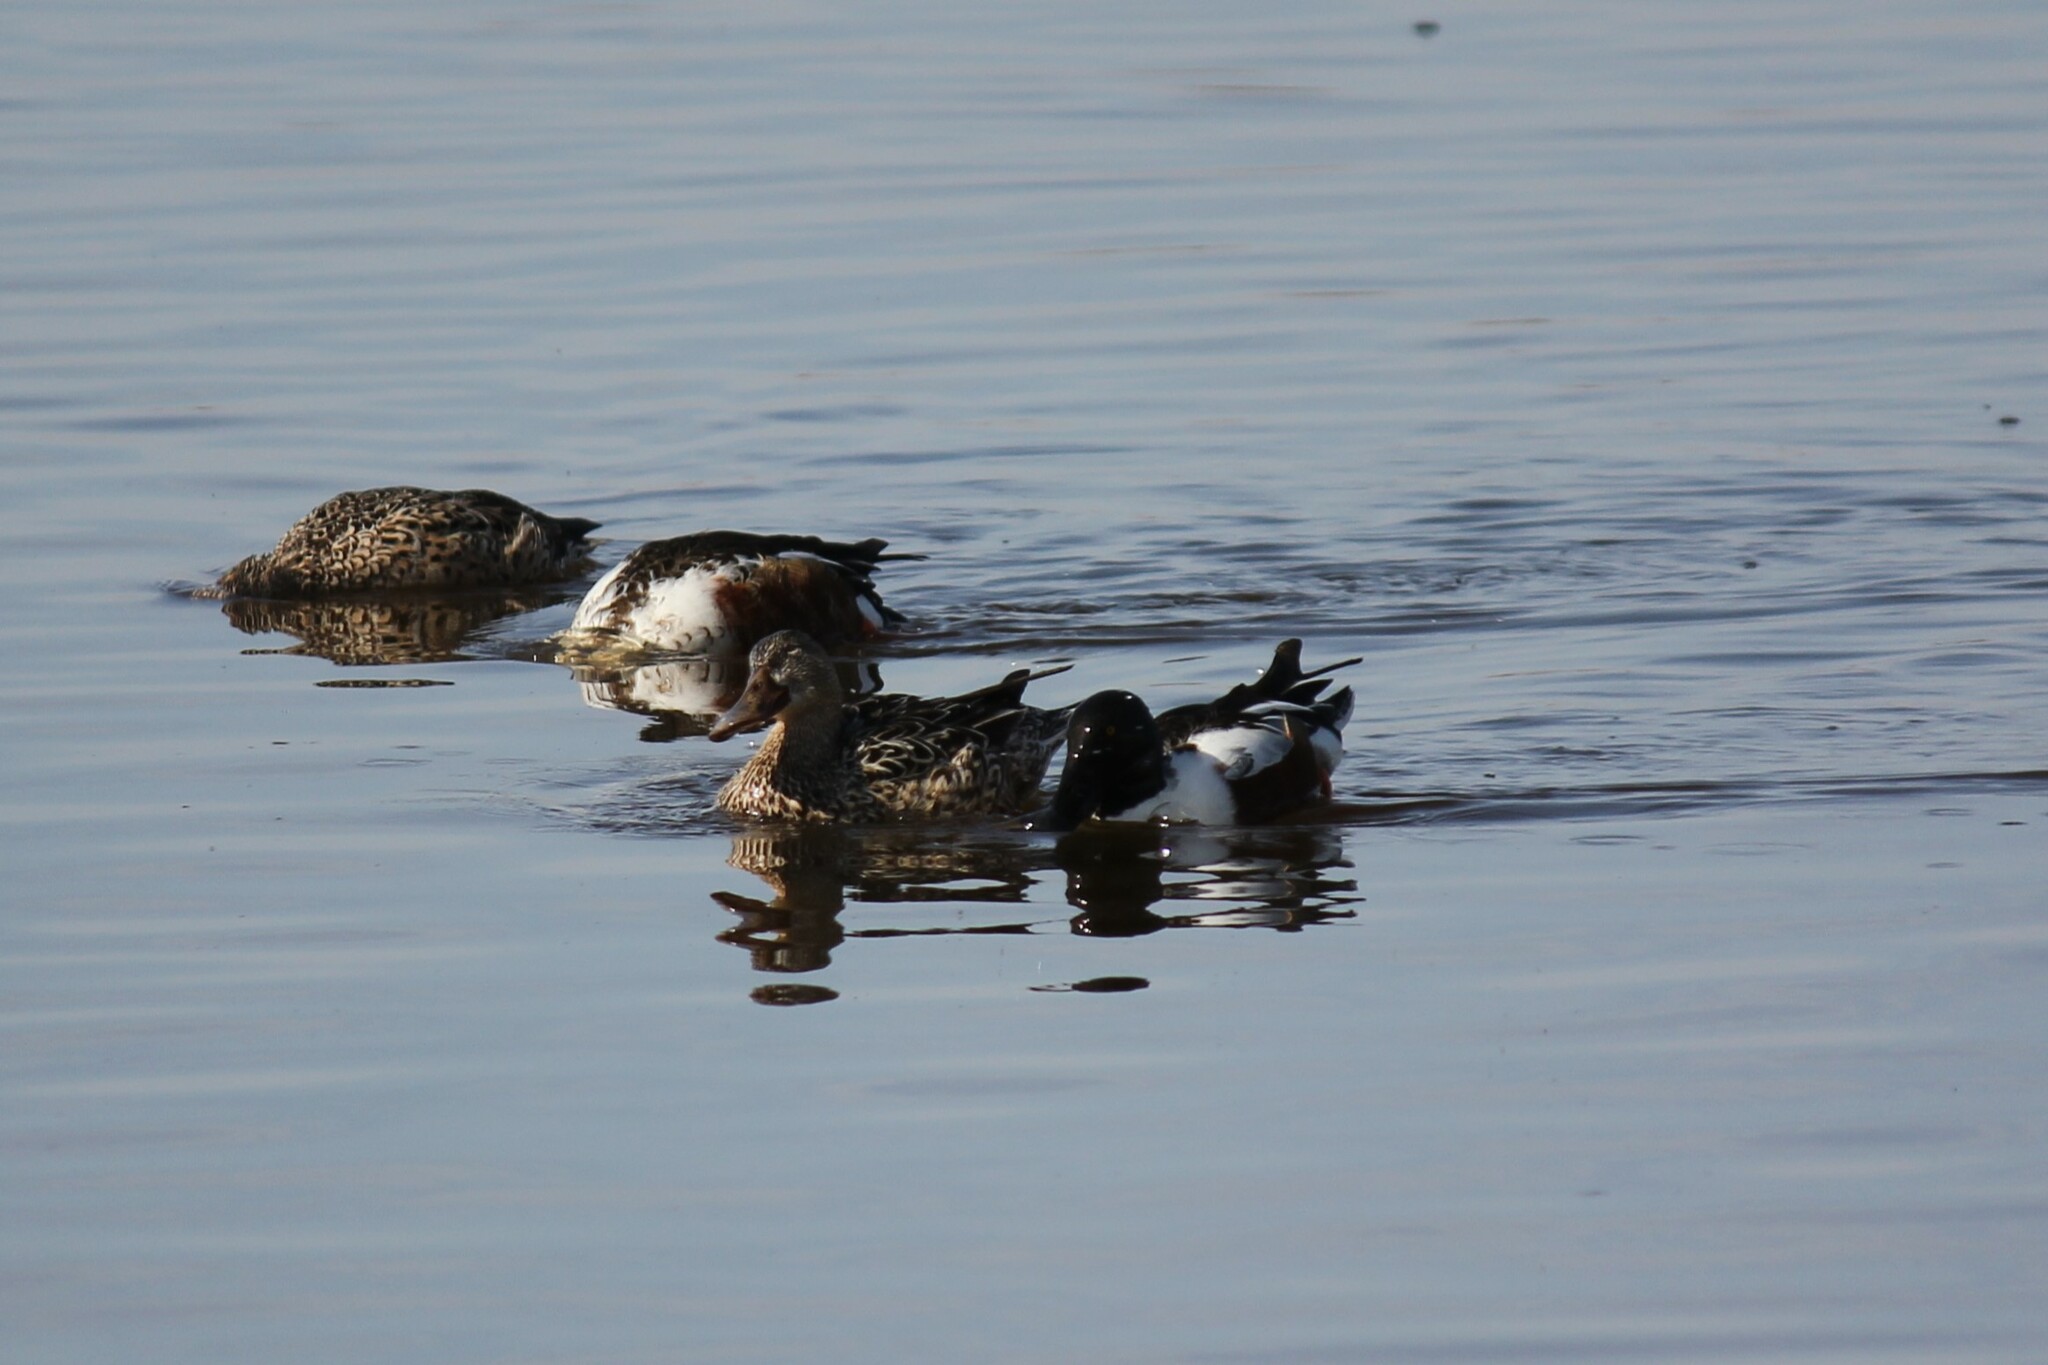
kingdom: Animalia
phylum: Chordata
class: Aves
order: Anseriformes
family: Anatidae
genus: Spatula
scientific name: Spatula clypeata
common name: Northern shoveler
